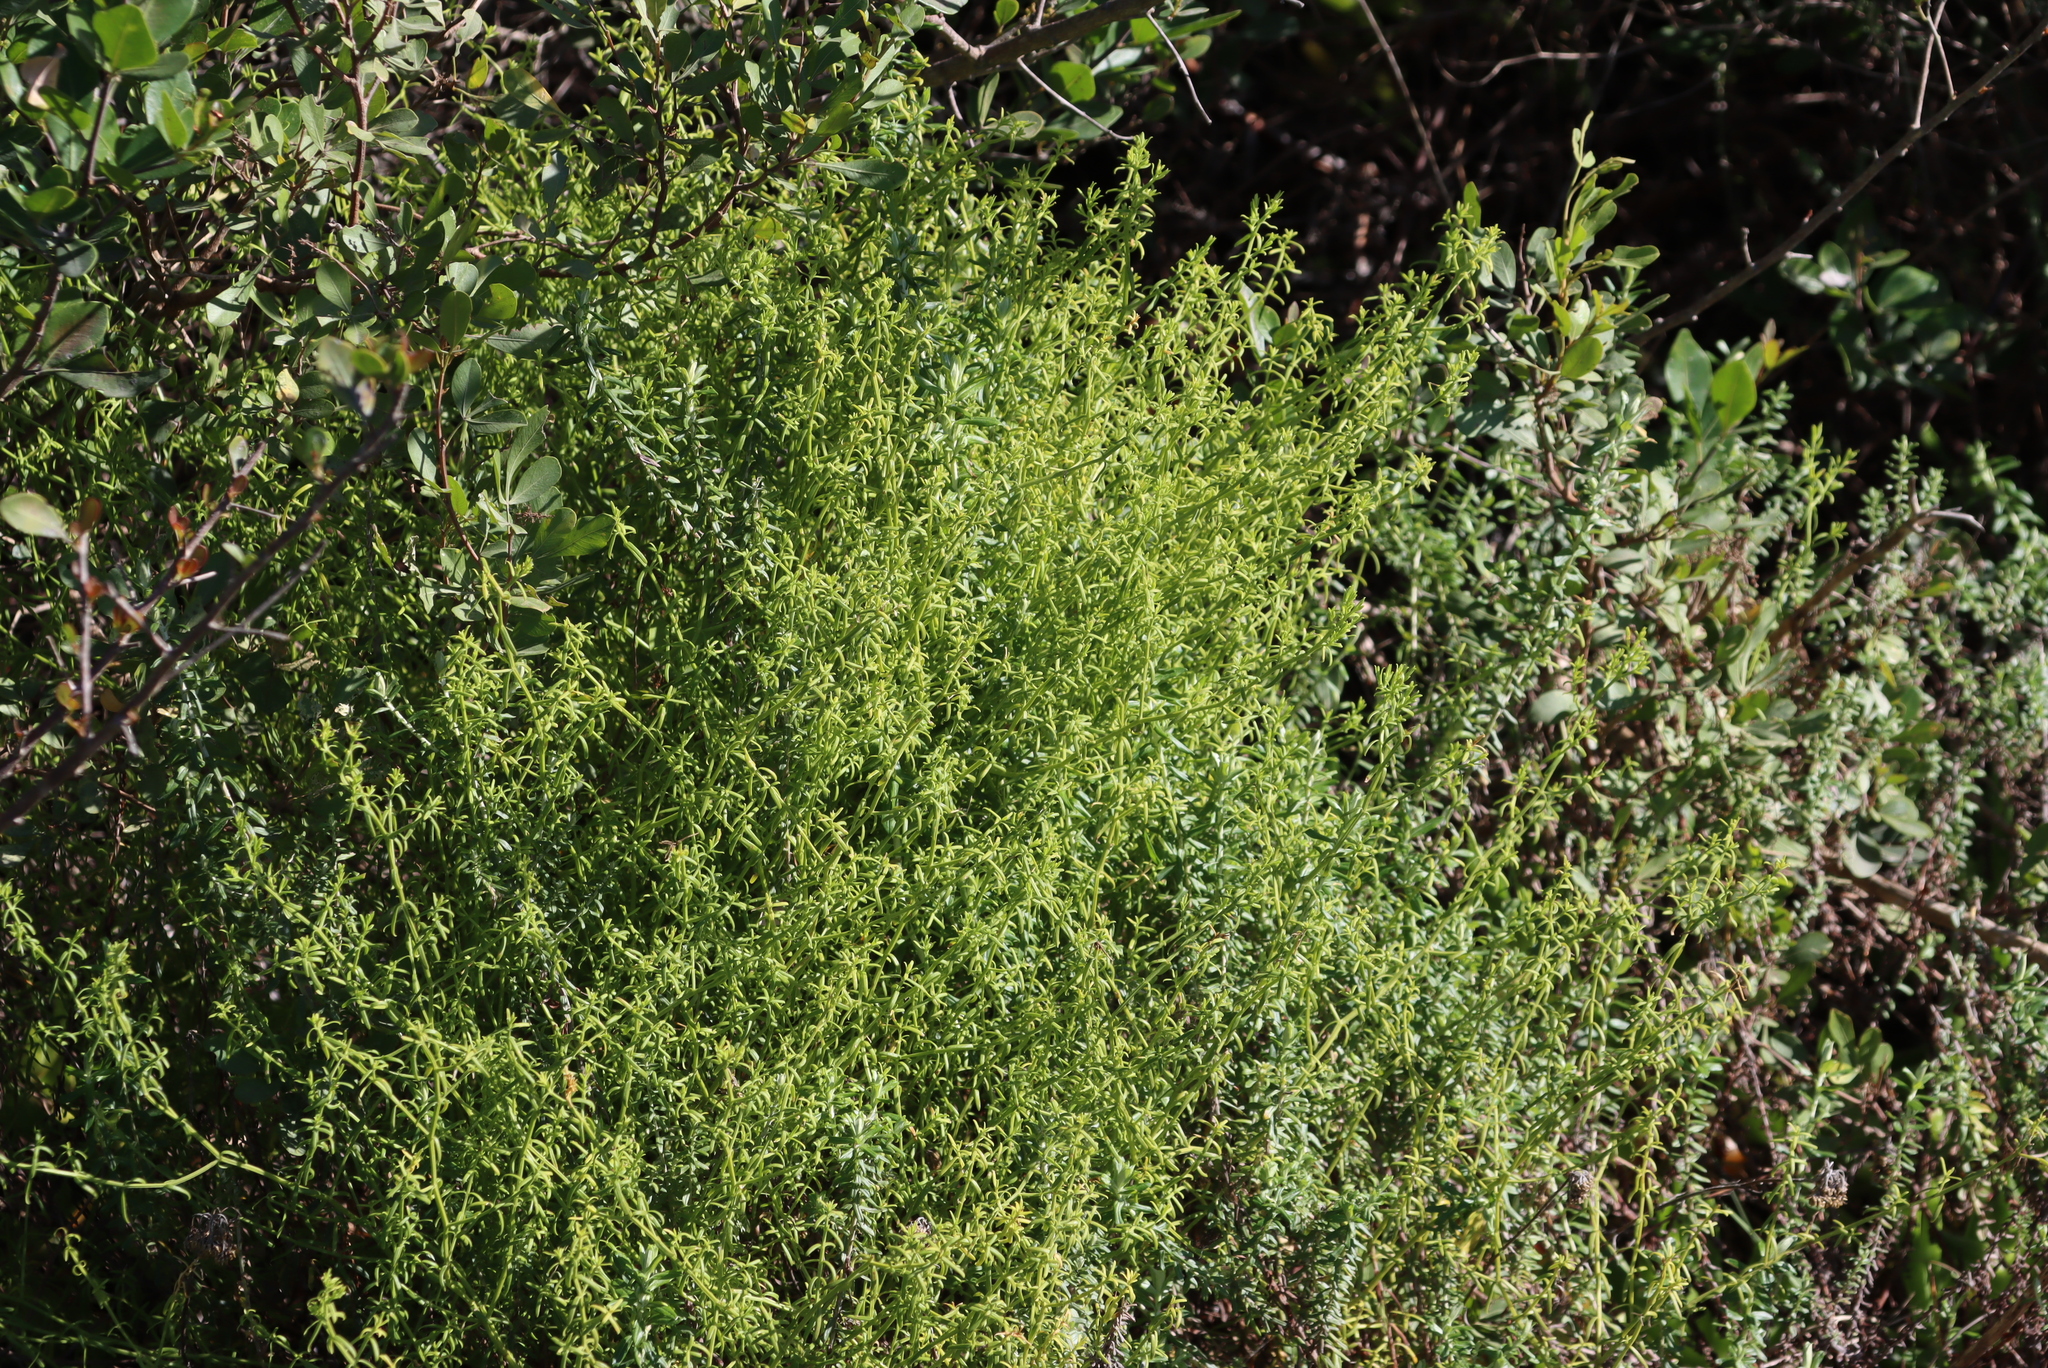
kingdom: Plantae
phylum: Tracheophyta
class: Magnoliopsida
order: Gentianales
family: Gentianaceae
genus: Chironia
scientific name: Chironia baccifera
